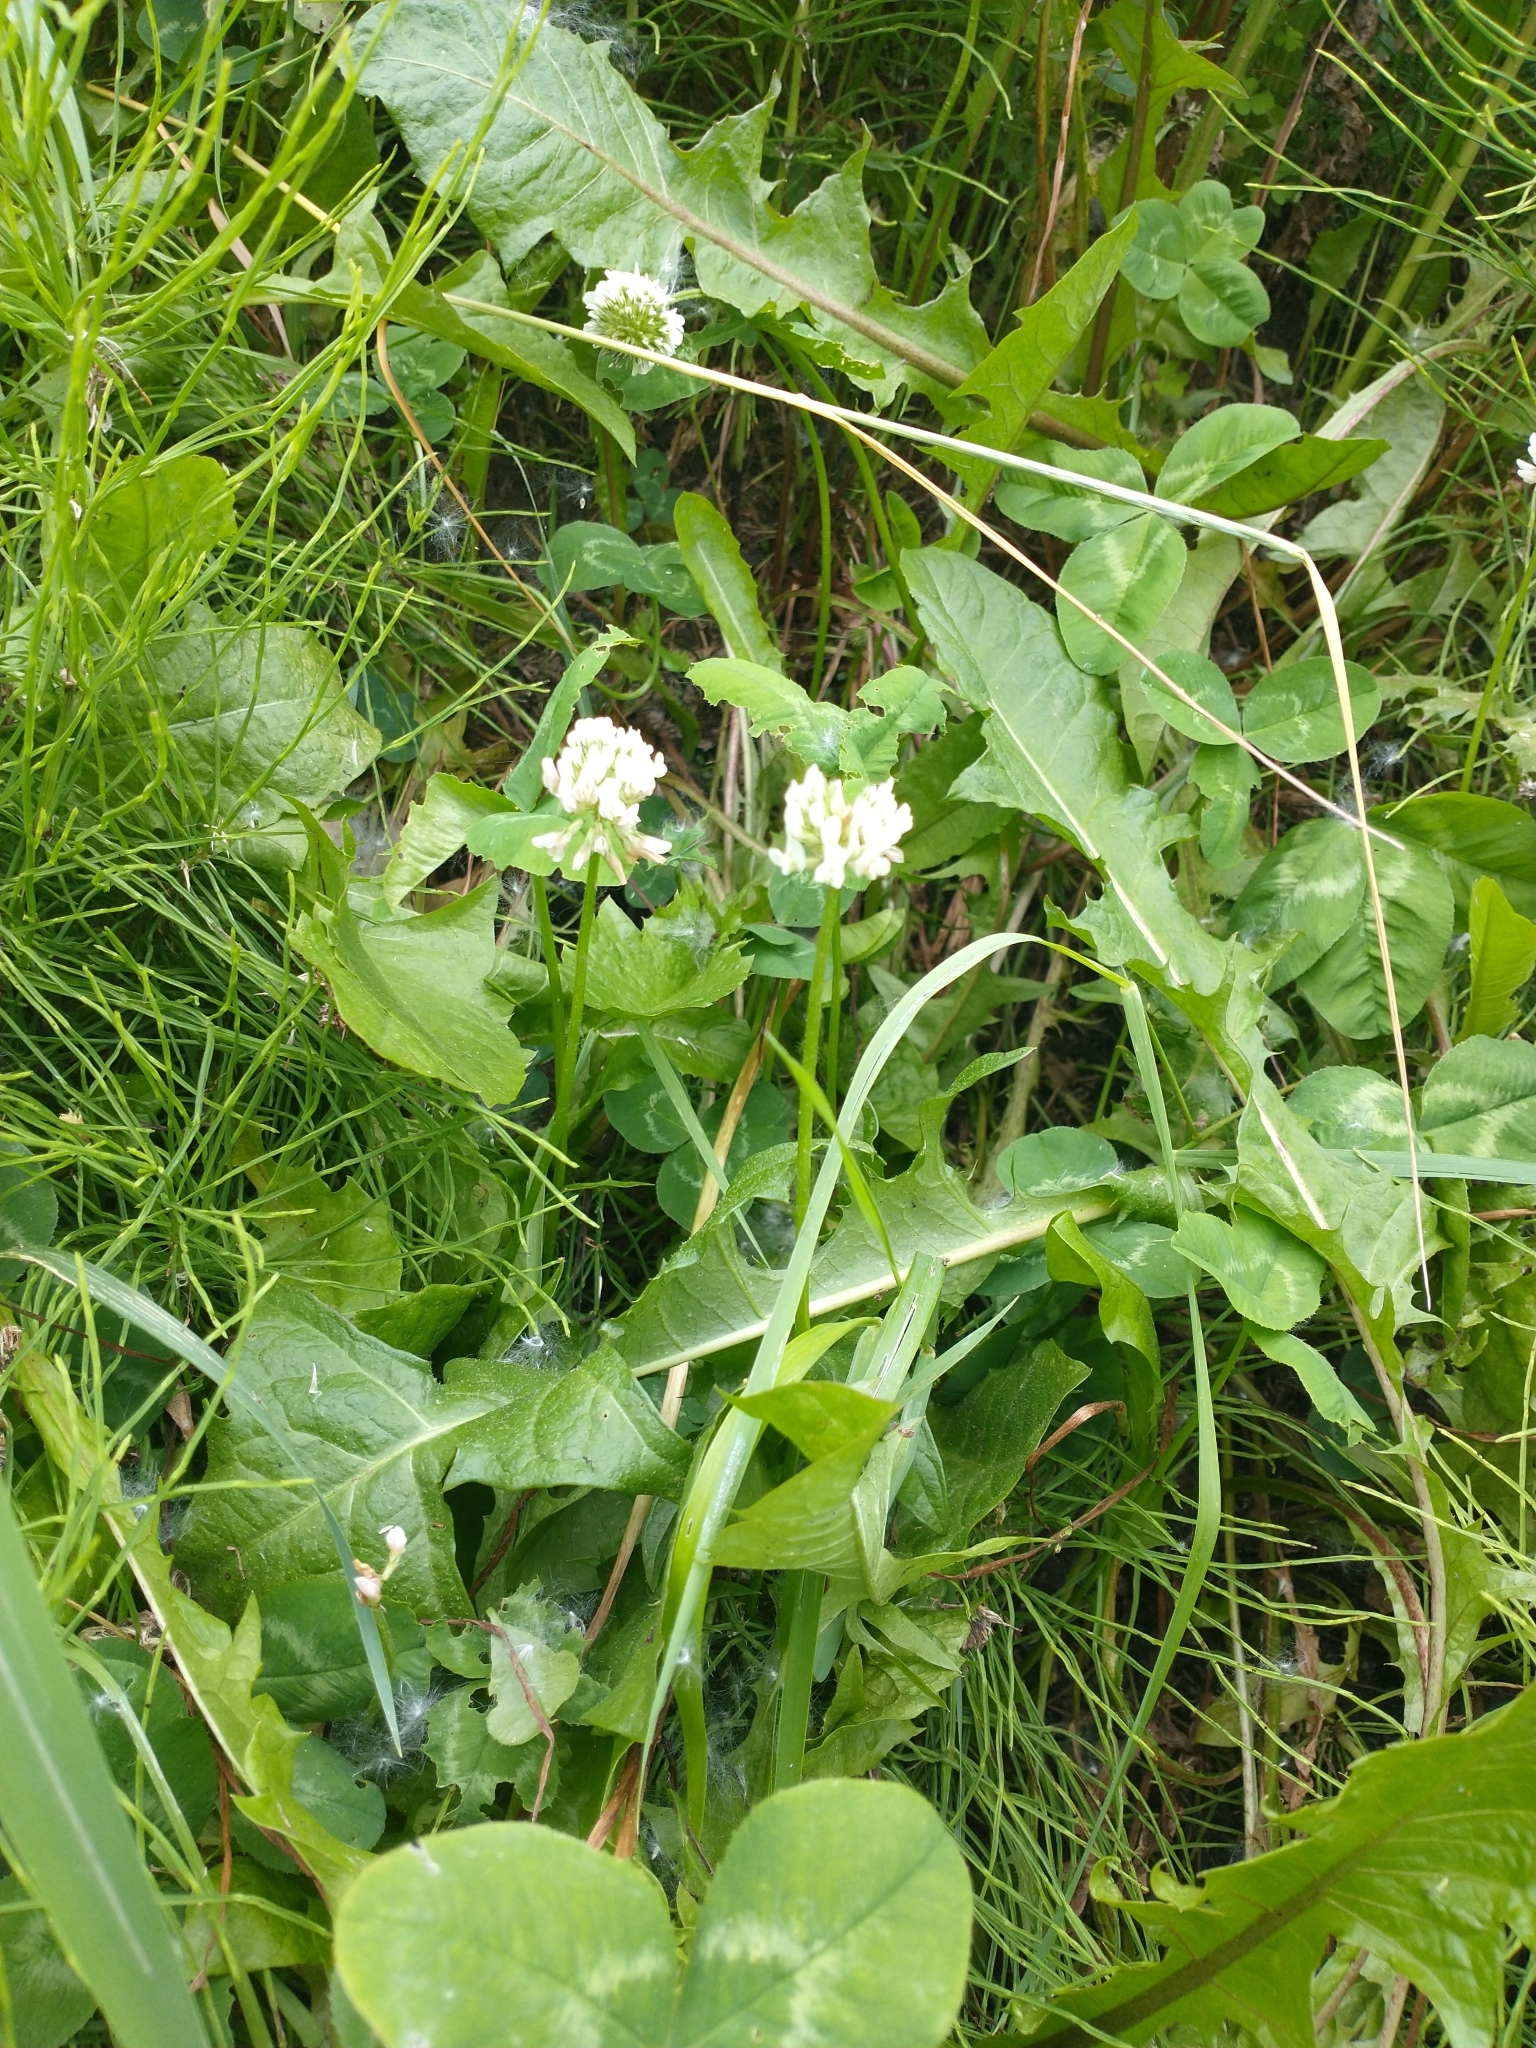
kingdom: Plantae
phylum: Tracheophyta
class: Magnoliopsida
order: Fabales
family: Fabaceae
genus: Trifolium
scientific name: Trifolium repens
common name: White clover
